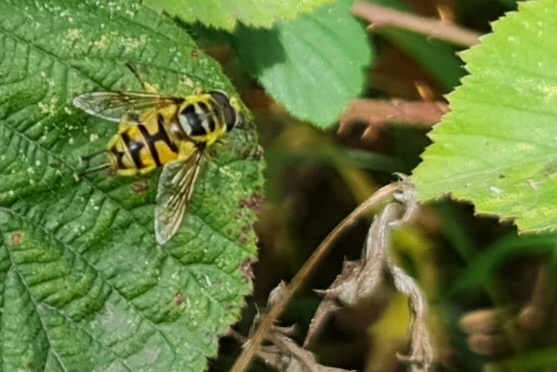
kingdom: Animalia
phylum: Arthropoda
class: Insecta
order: Diptera
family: Syrphidae
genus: Myathropa
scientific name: Myathropa florea
